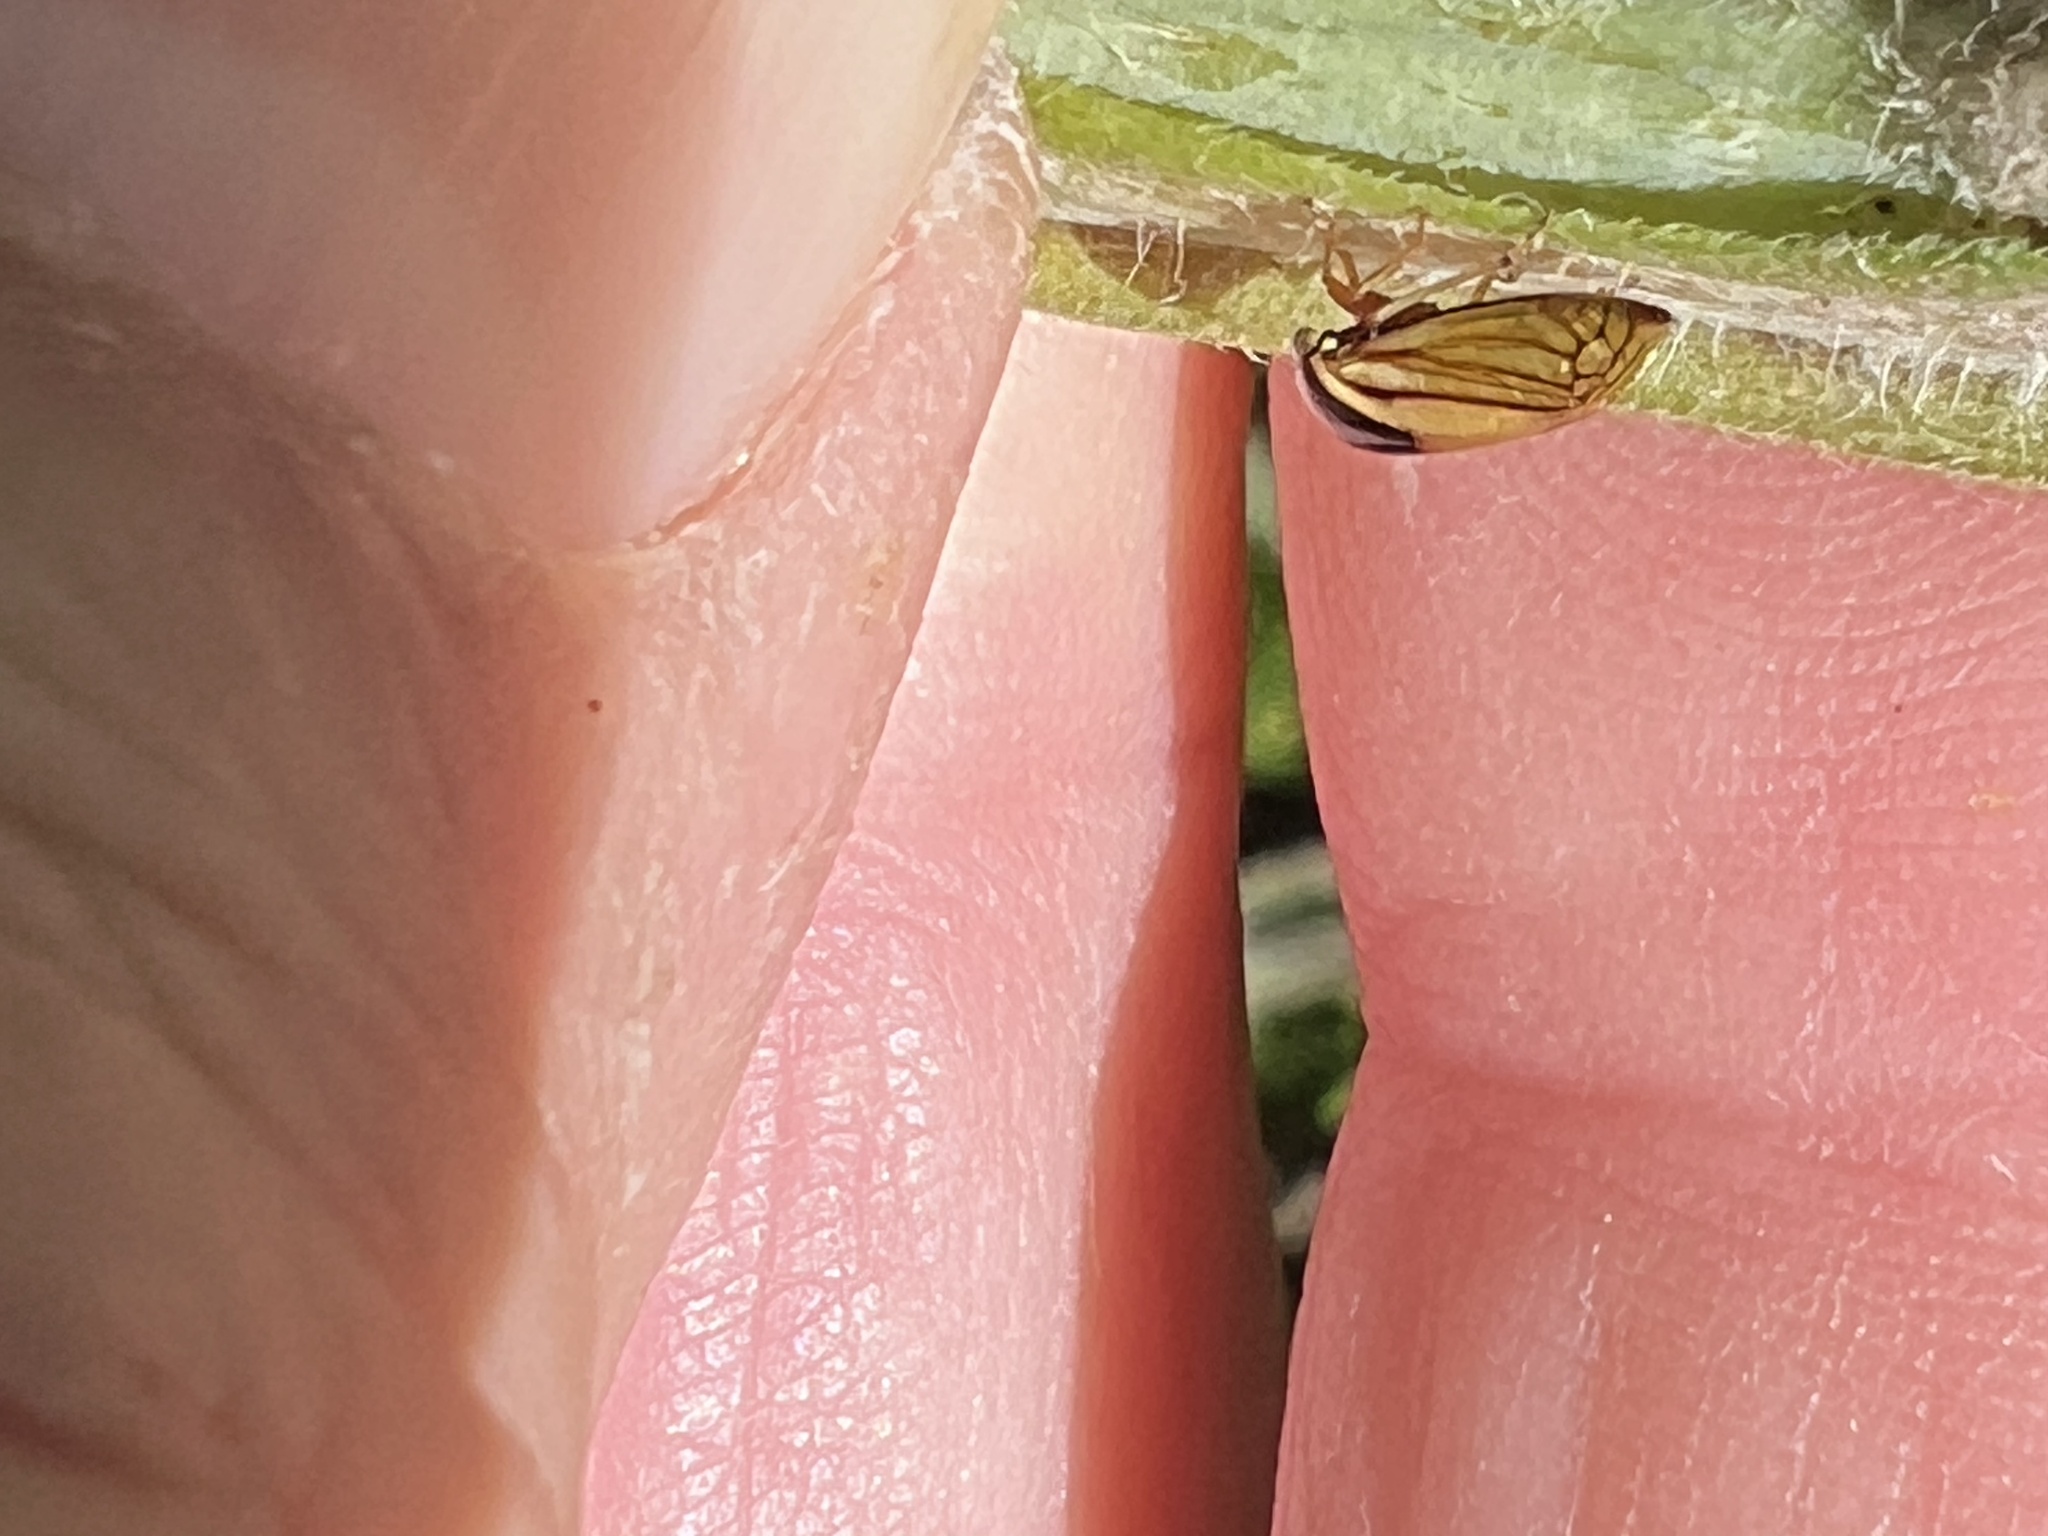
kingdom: Animalia
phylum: Arthropoda
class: Insecta
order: Hemiptera
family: Membracidae
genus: Acutalis
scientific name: Acutalis tartarea
